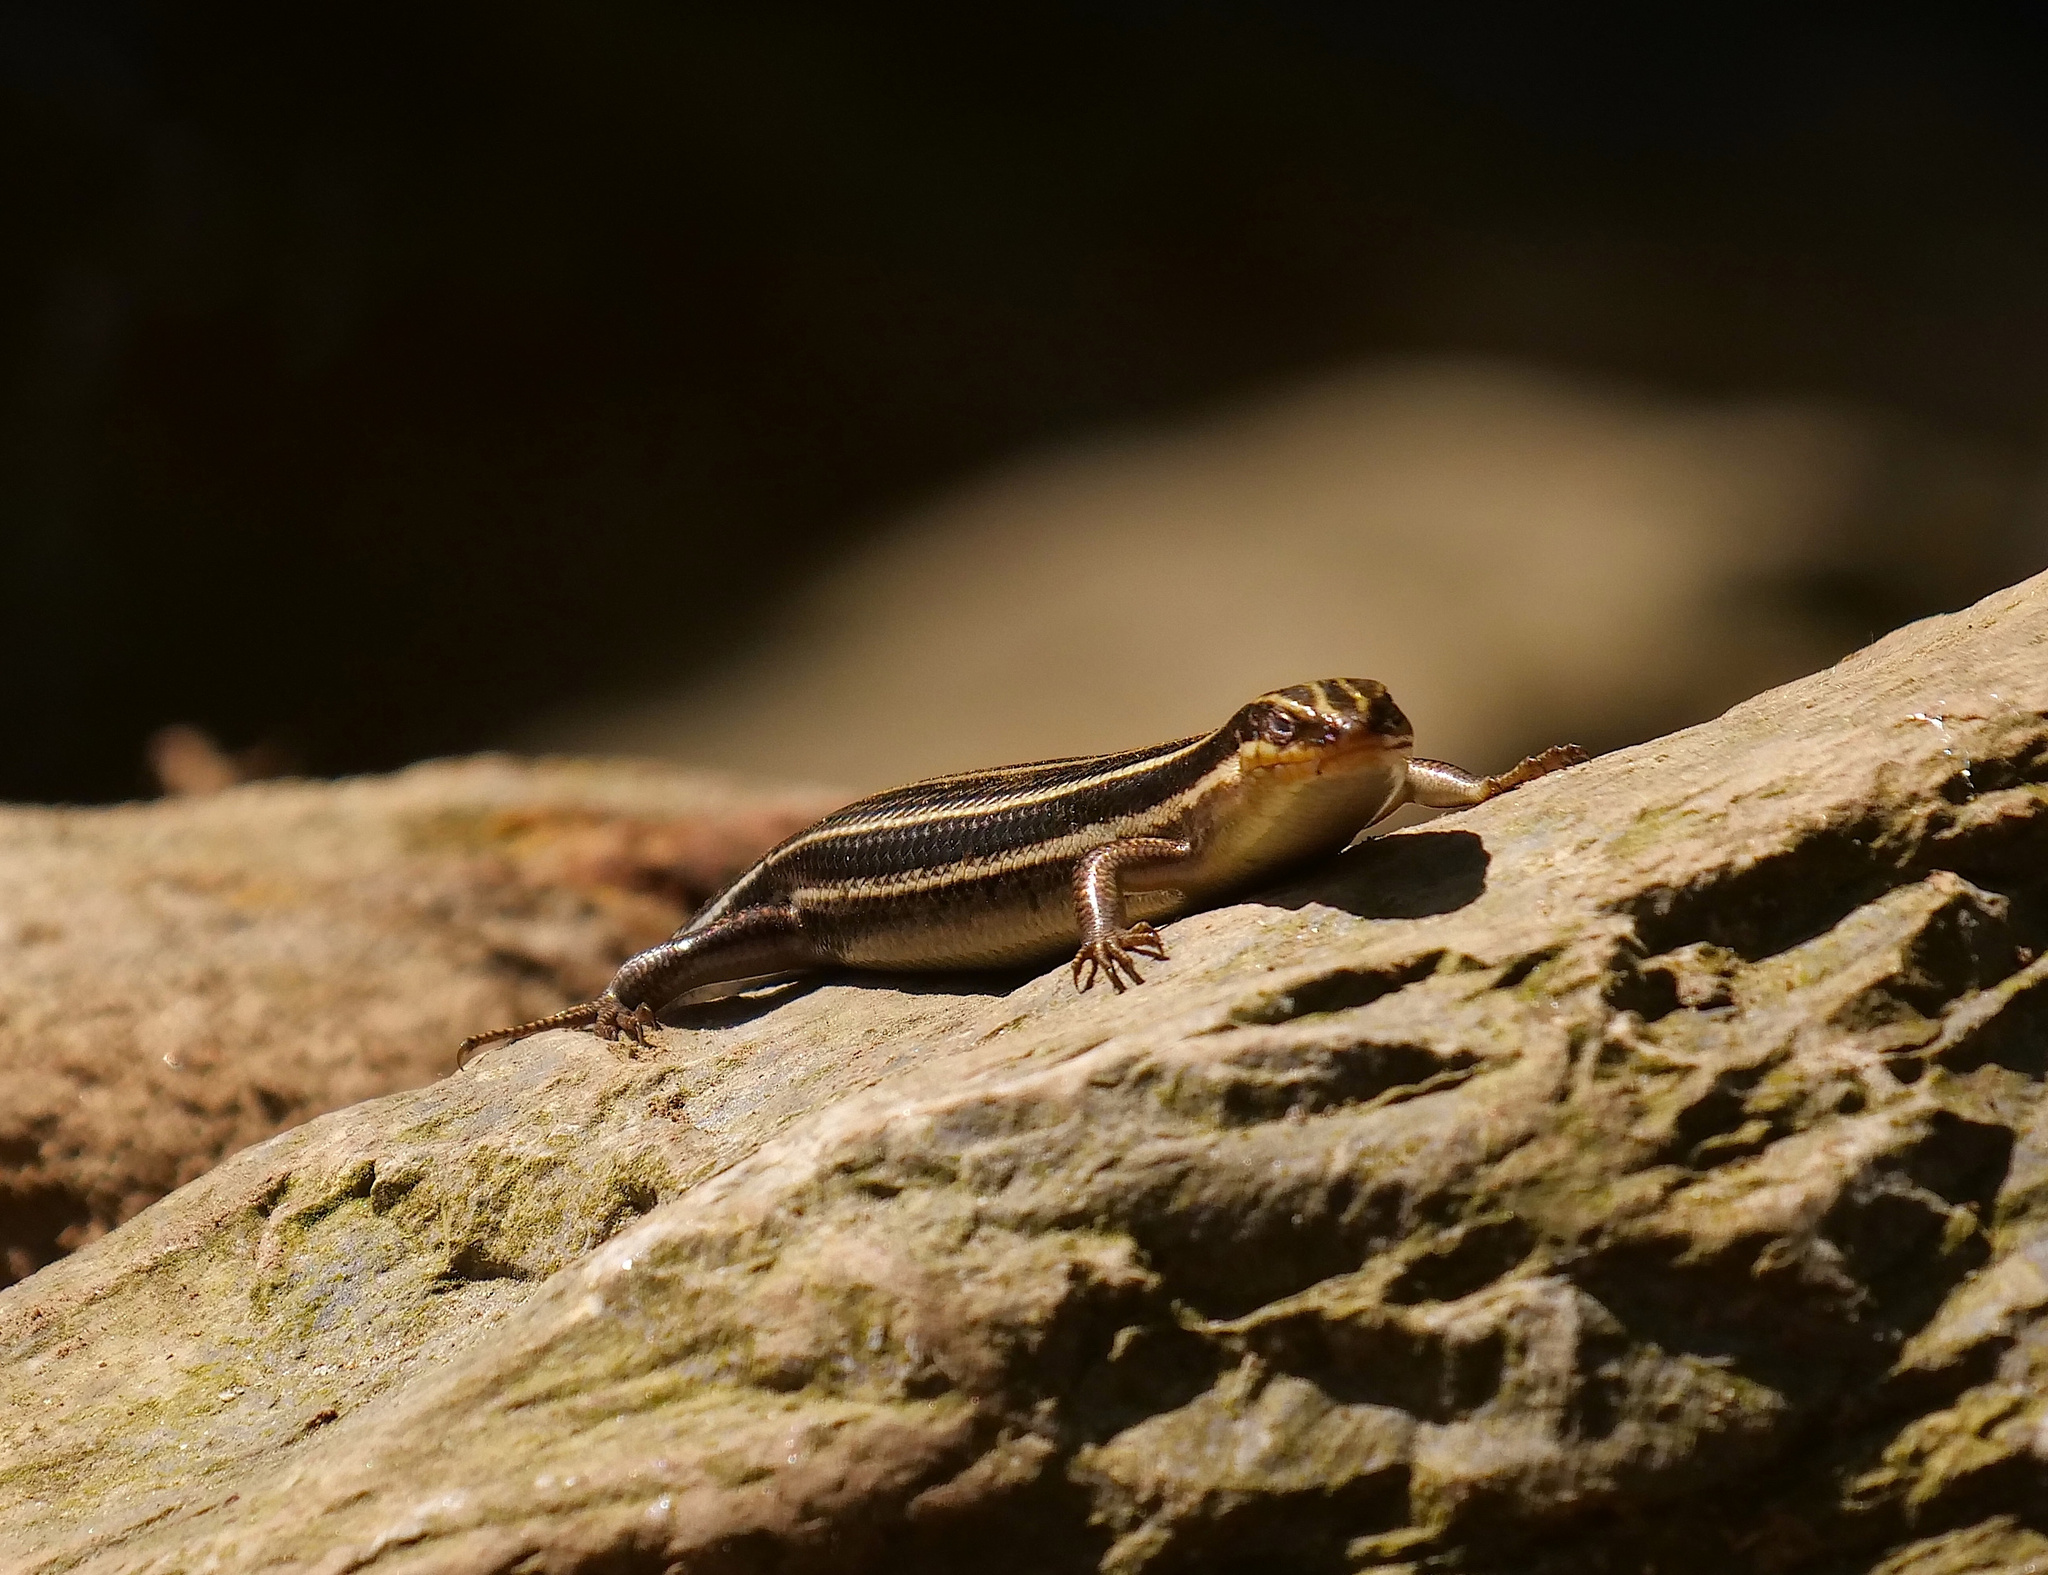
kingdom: Animalia
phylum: Chordata
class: Squamata
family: Scincidae
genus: Plestiodon
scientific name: Plestiodon fasciatus
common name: Five-lined skink
